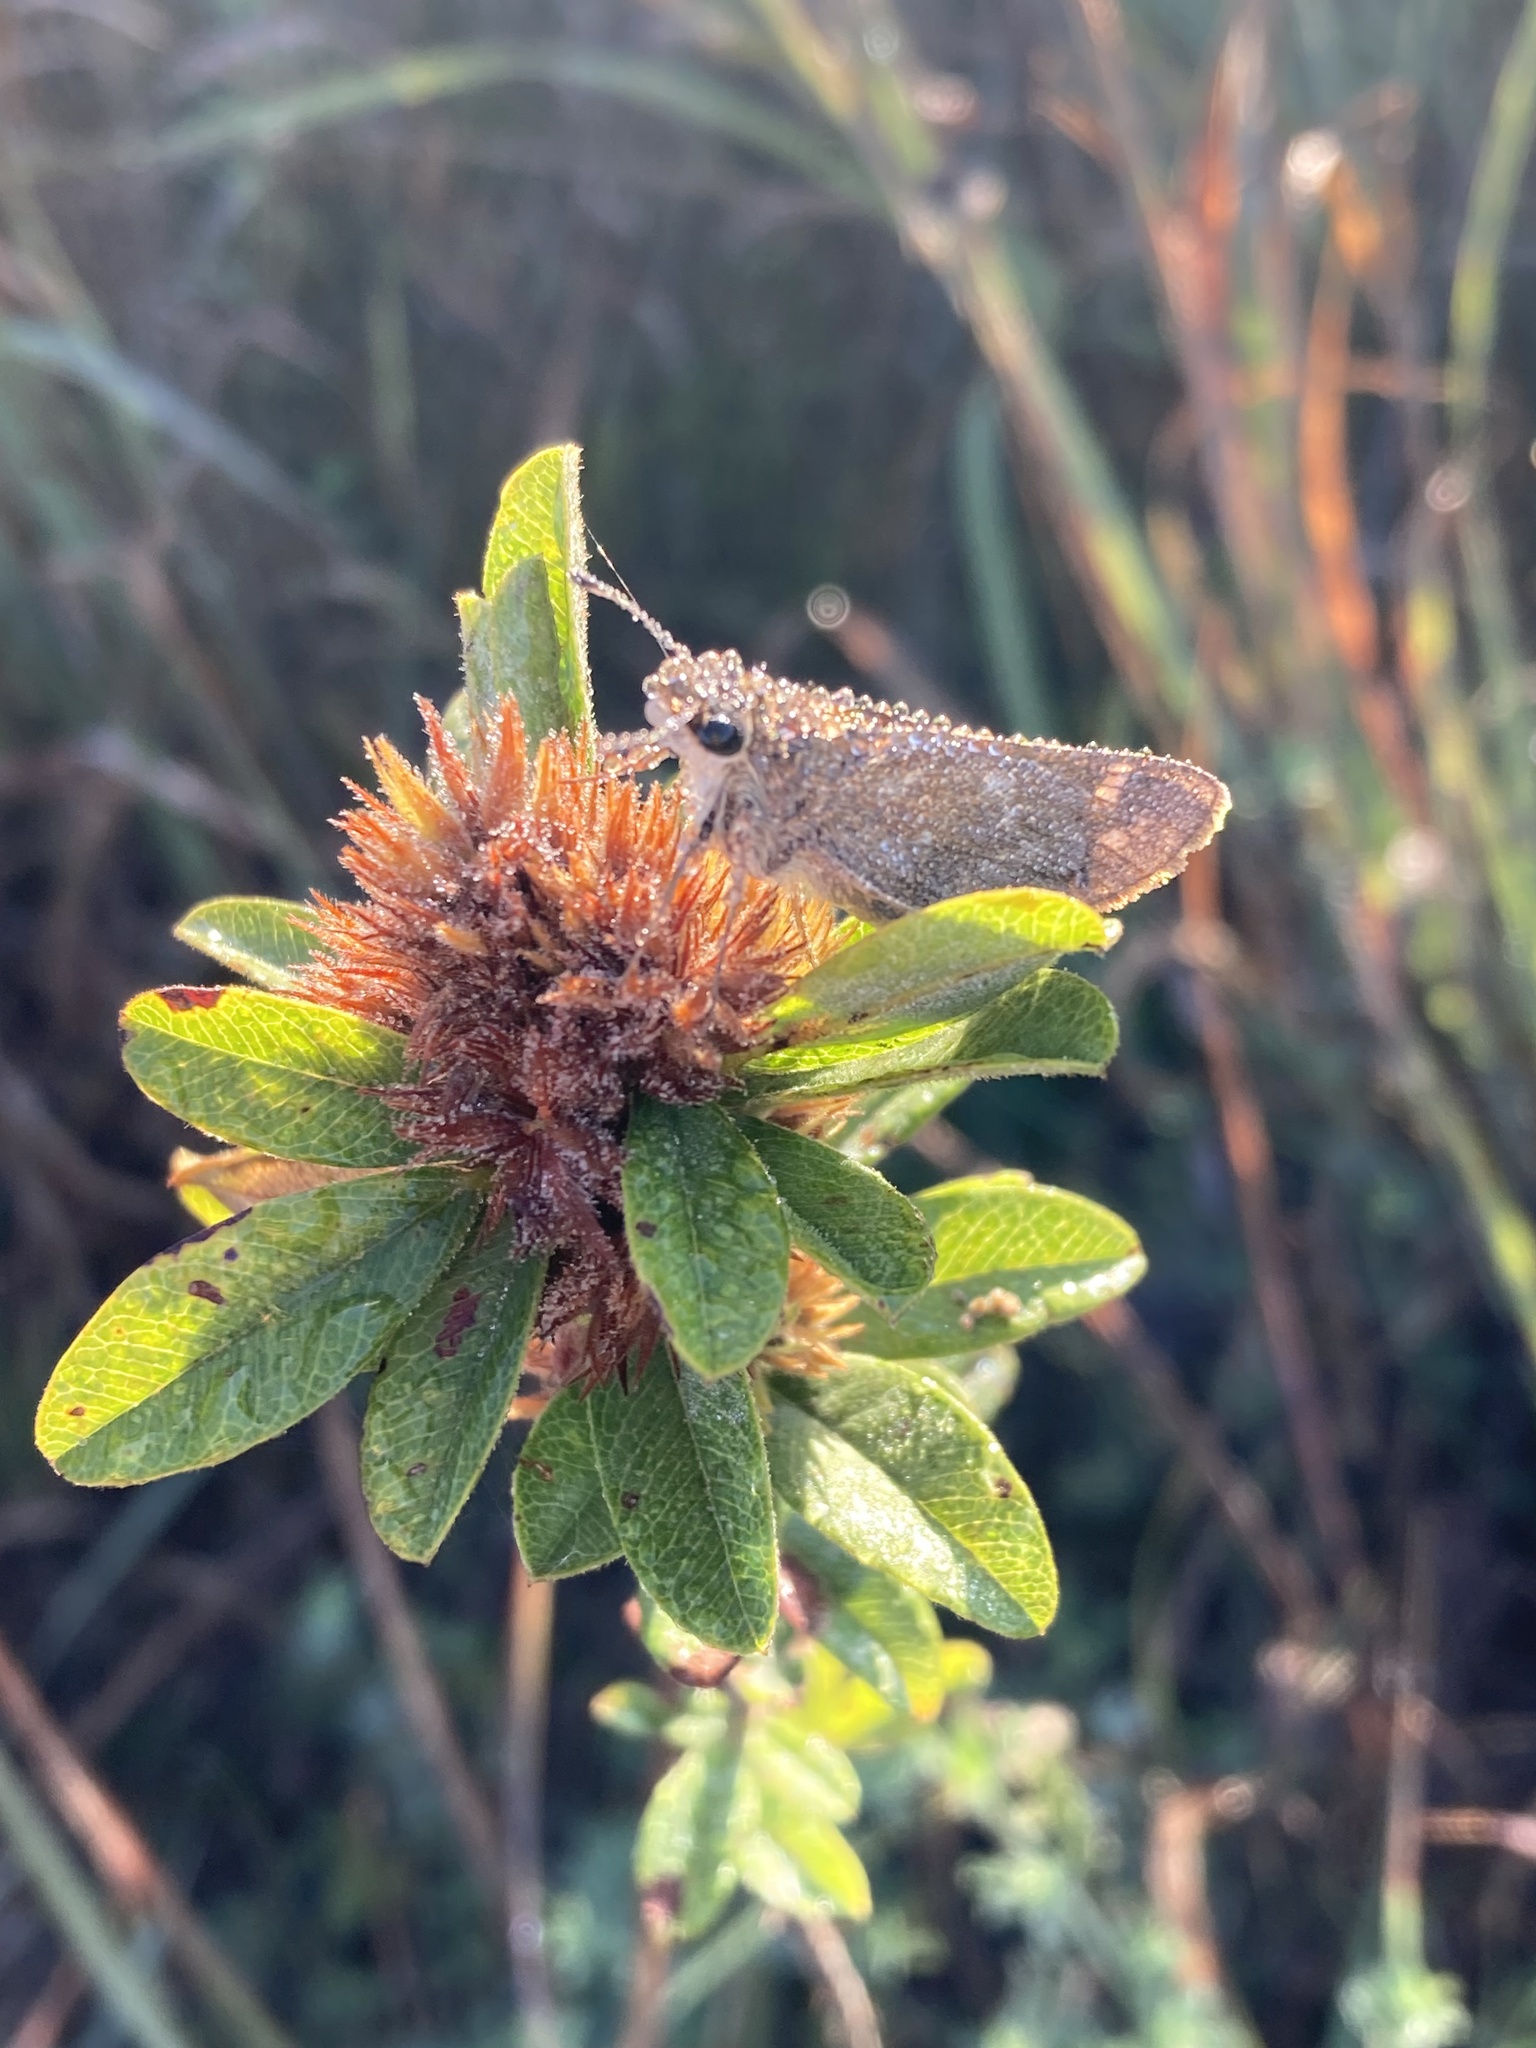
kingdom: Animalia
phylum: Arthropoda
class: Insecta
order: Lepidoptera
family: Hesperiidae
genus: Atalopedes
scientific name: Atalopedes
